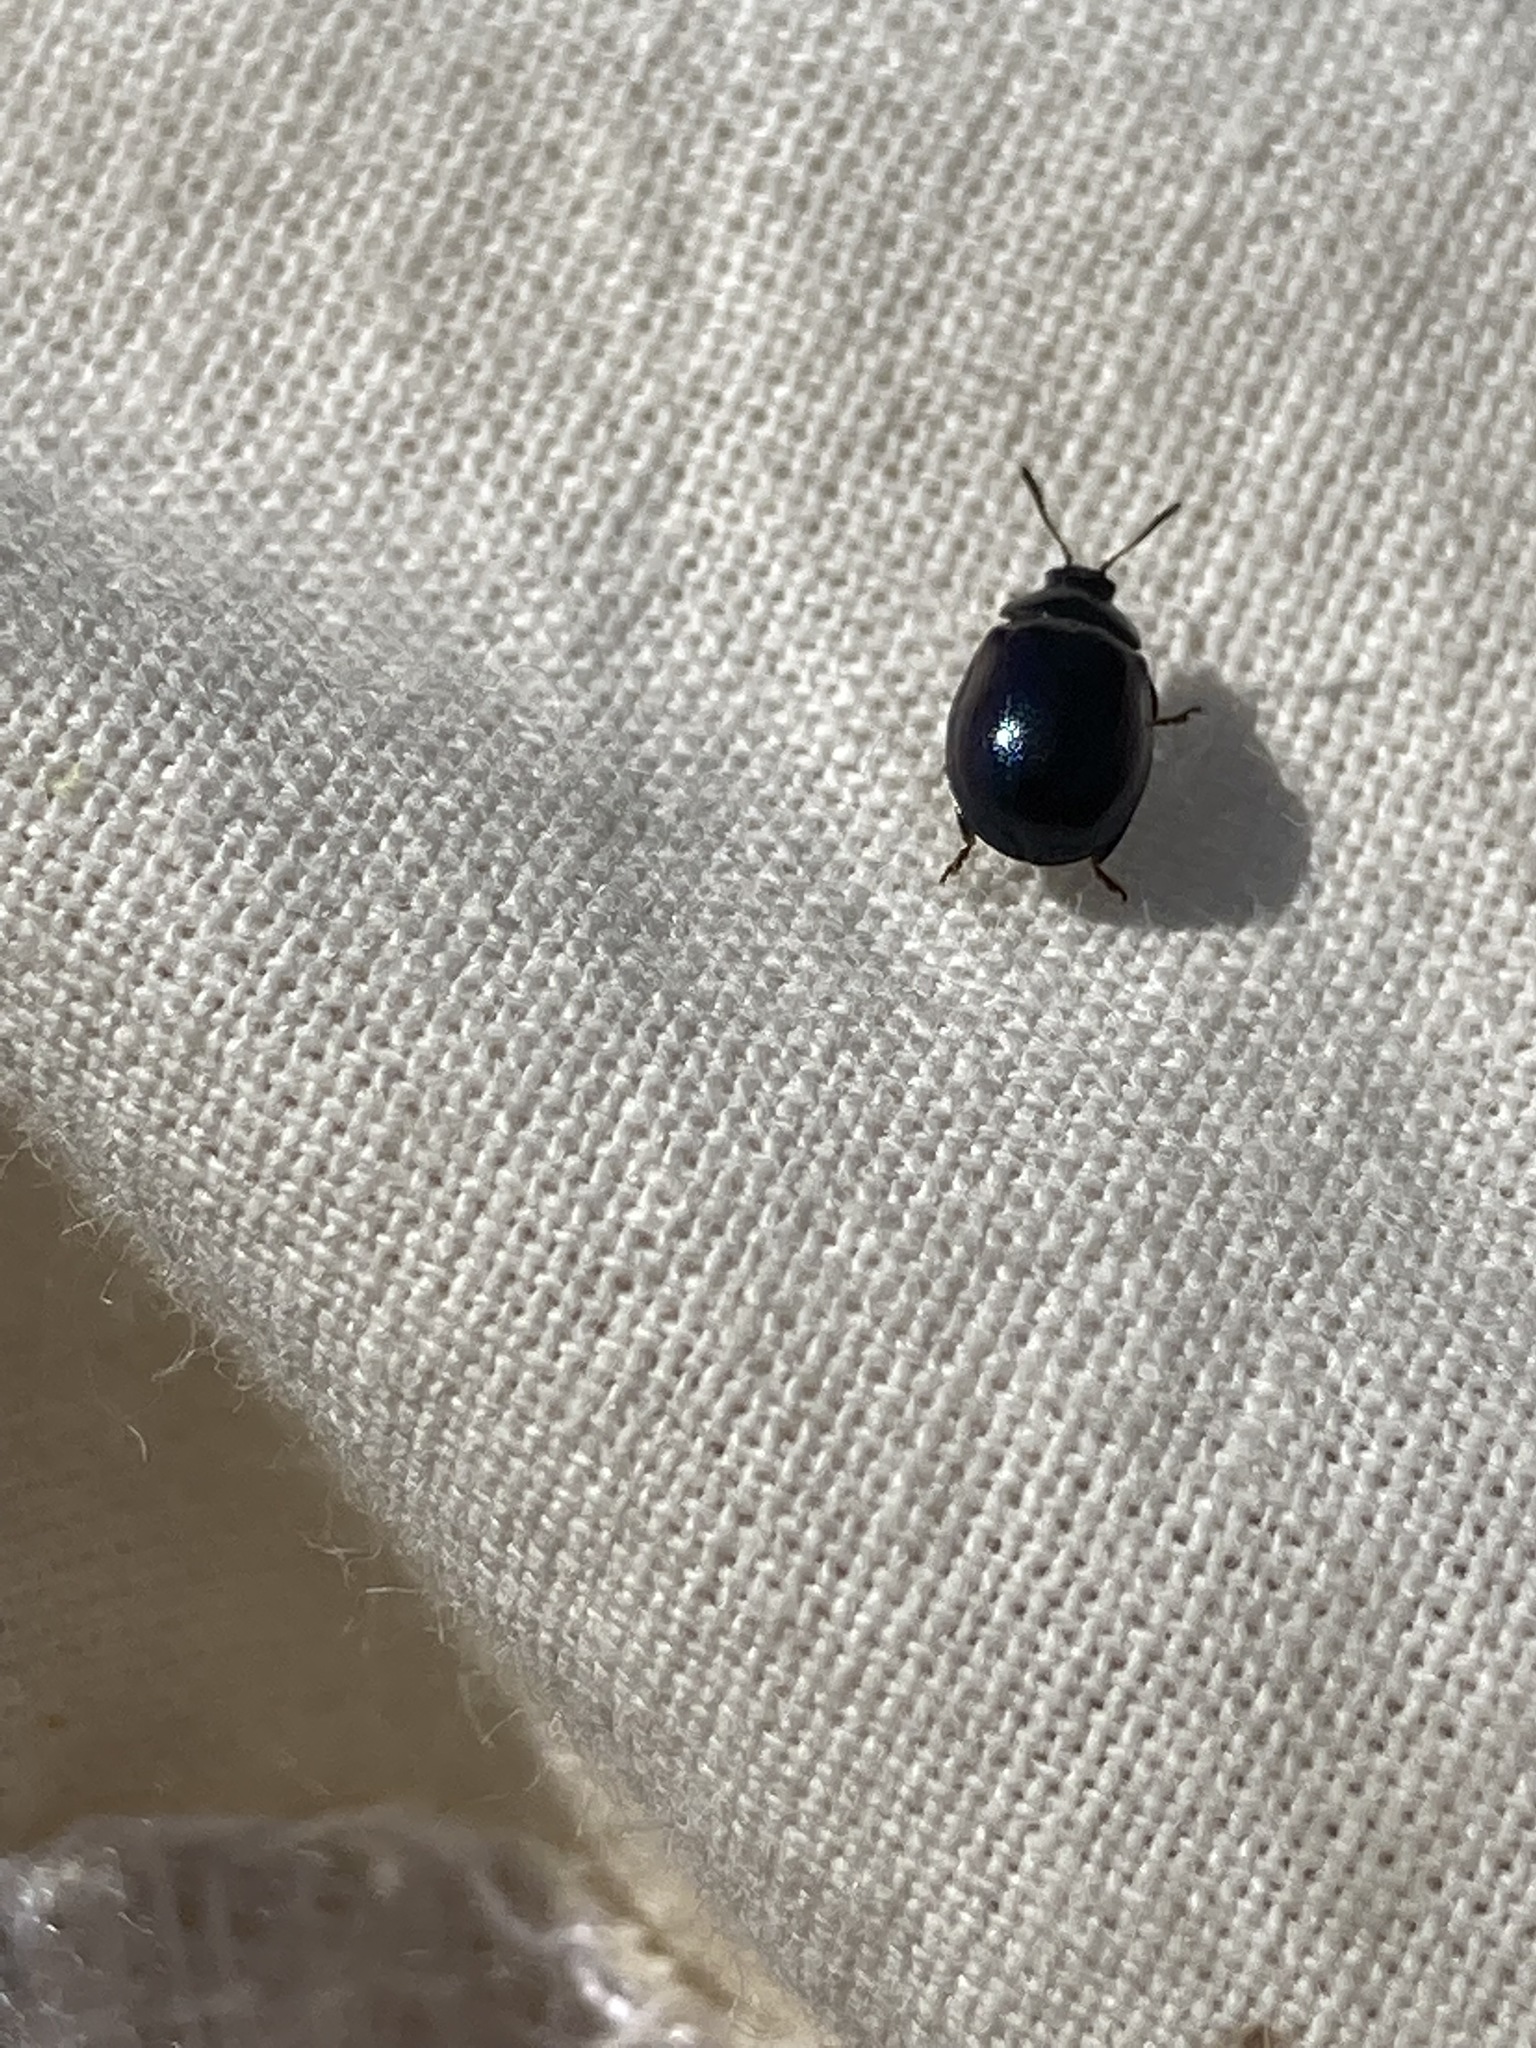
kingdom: Animalia
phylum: Arthropoda
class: Insecta
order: Coleoptera
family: Chrysomelidae
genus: Plagiodera
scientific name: Plagiodera versicolora
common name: Imported willow leaf beetle
